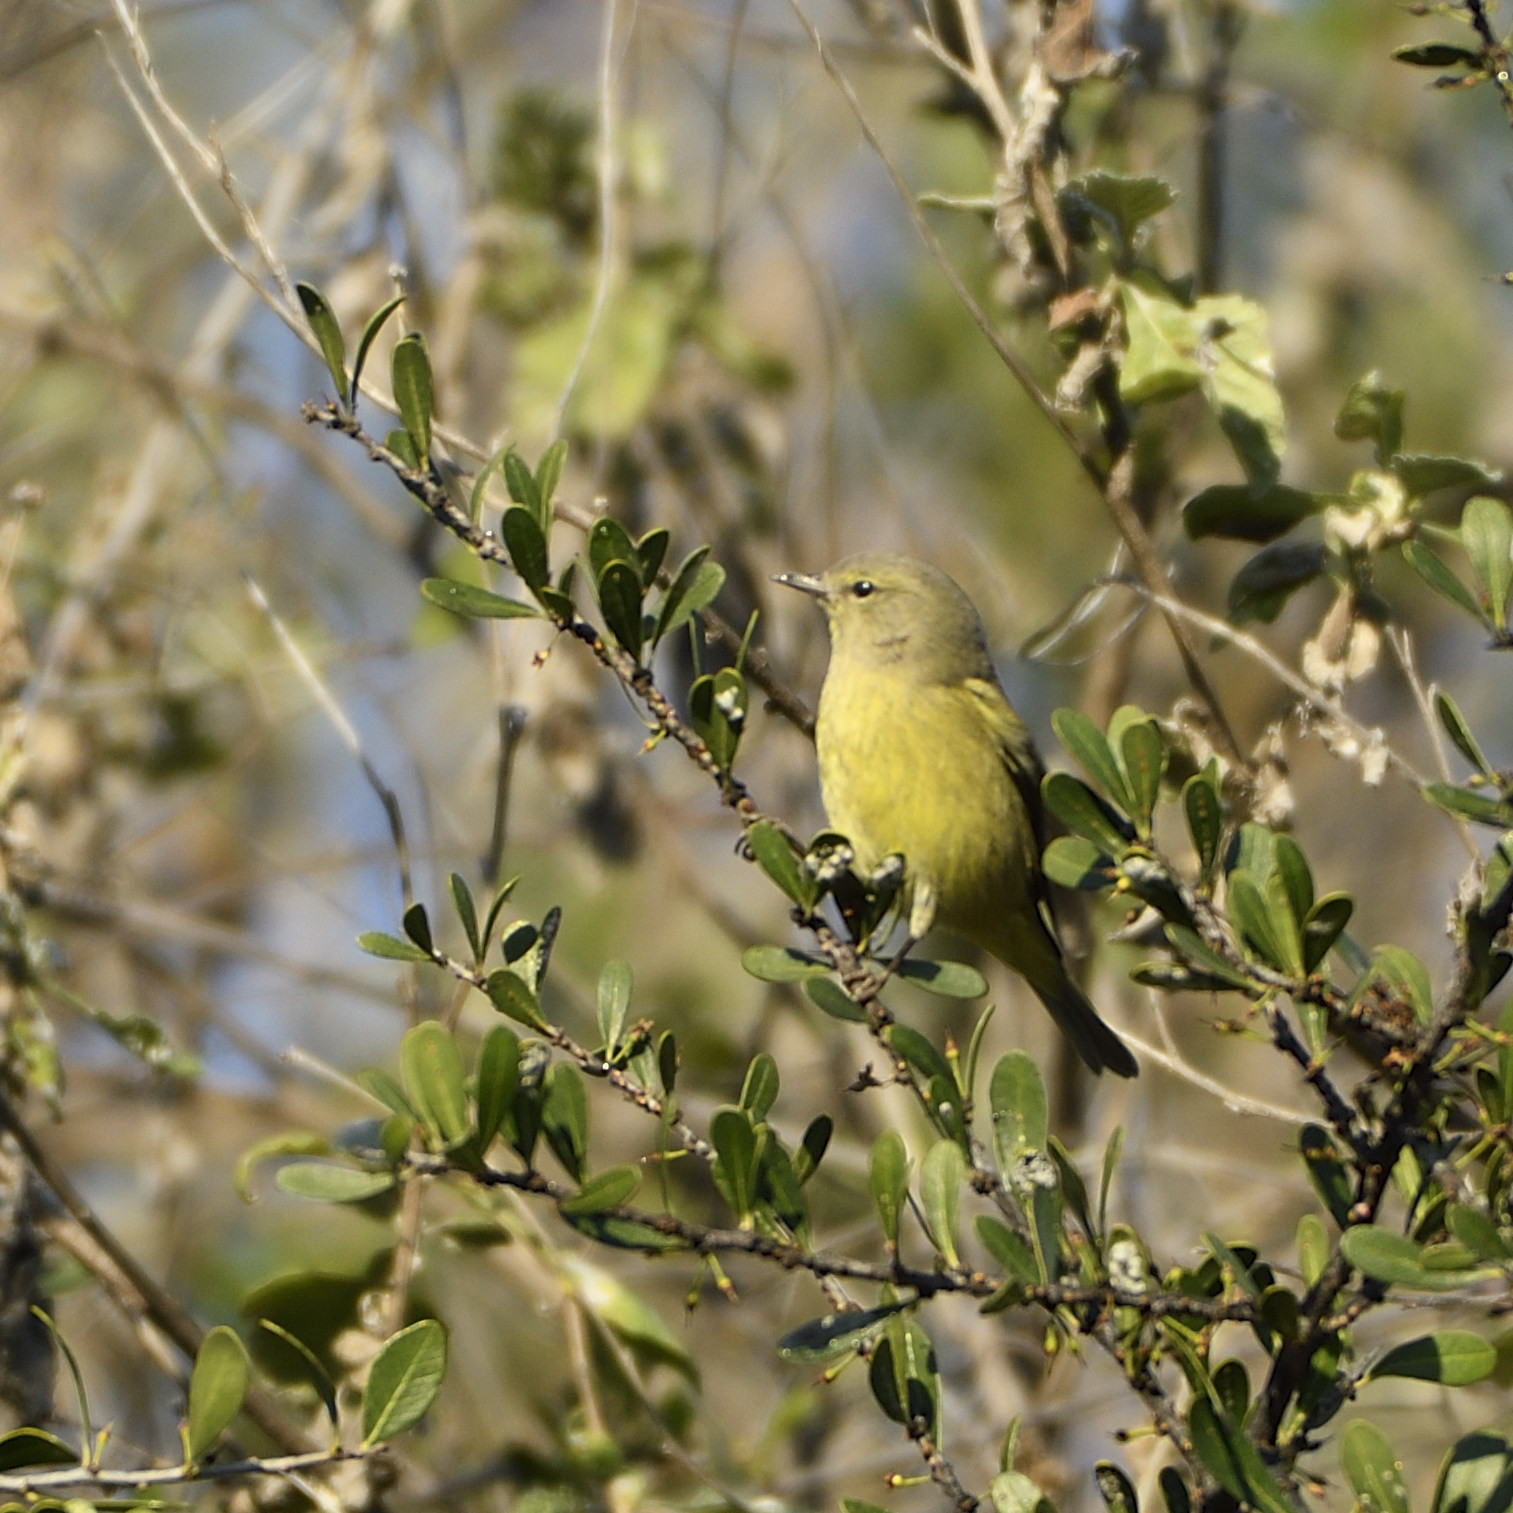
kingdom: Animalia
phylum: Chordata
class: Aves
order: Passeriformes
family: Parulidae
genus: Leiothlypis
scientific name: Leiothlypis celata
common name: Orange-crowned warbler
